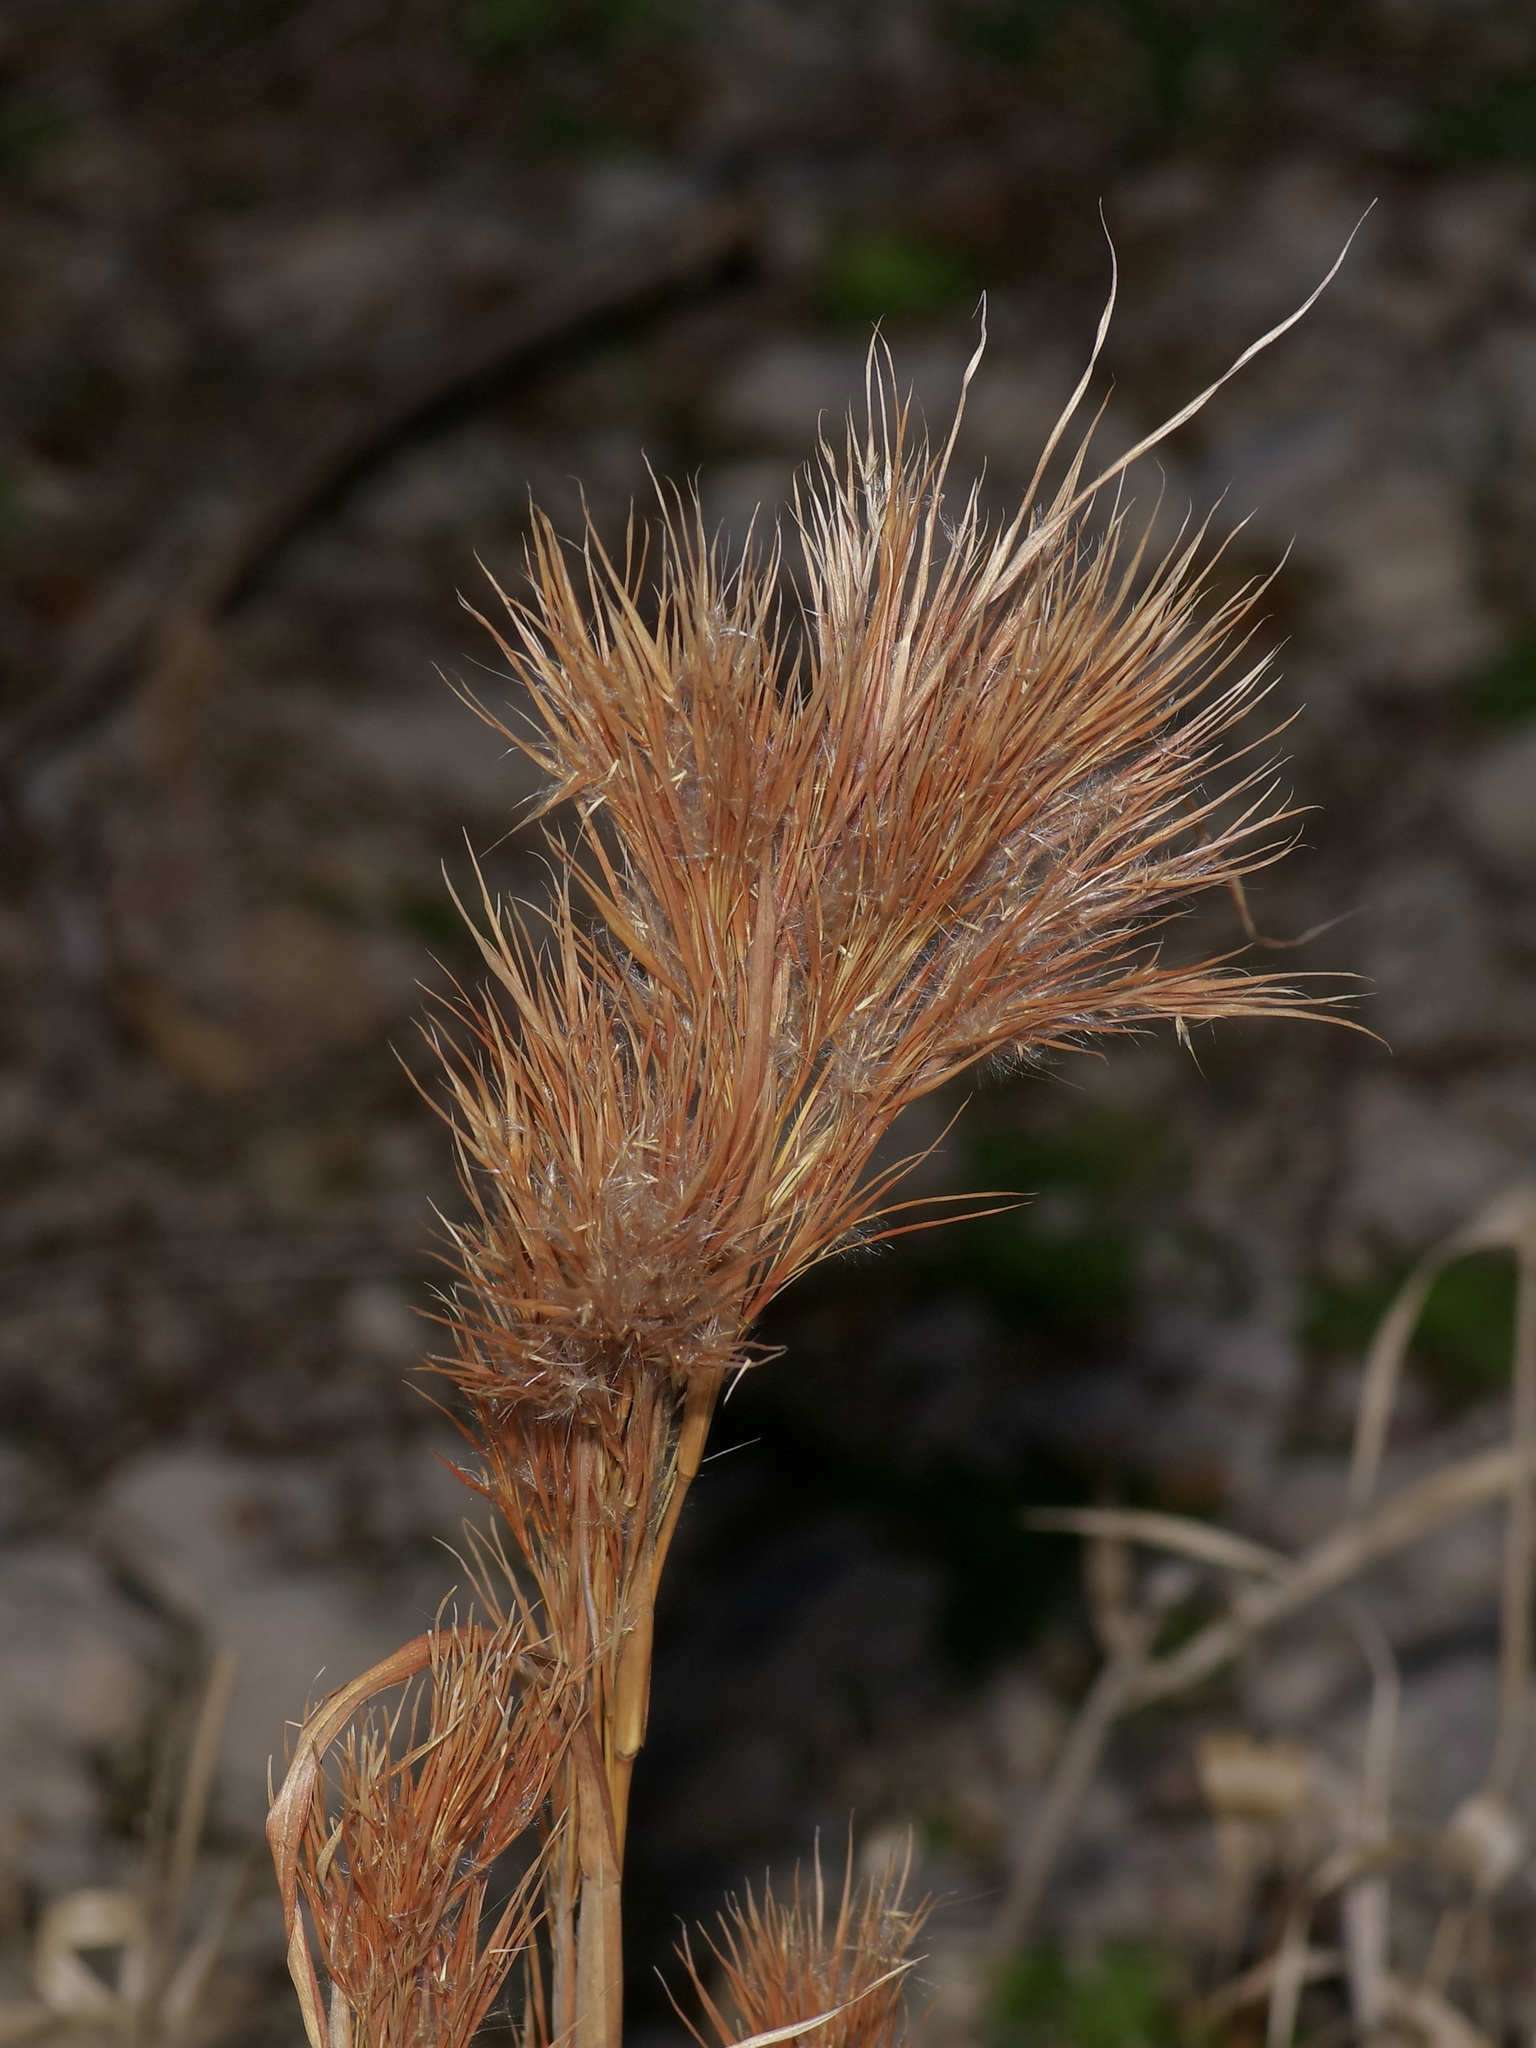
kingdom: Plantae
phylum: Tracheophyta
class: Liliopsida
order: Poales
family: Poaceae
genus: Andropogon
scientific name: Andropogon tenuispatheus
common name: Bushy bluestem
